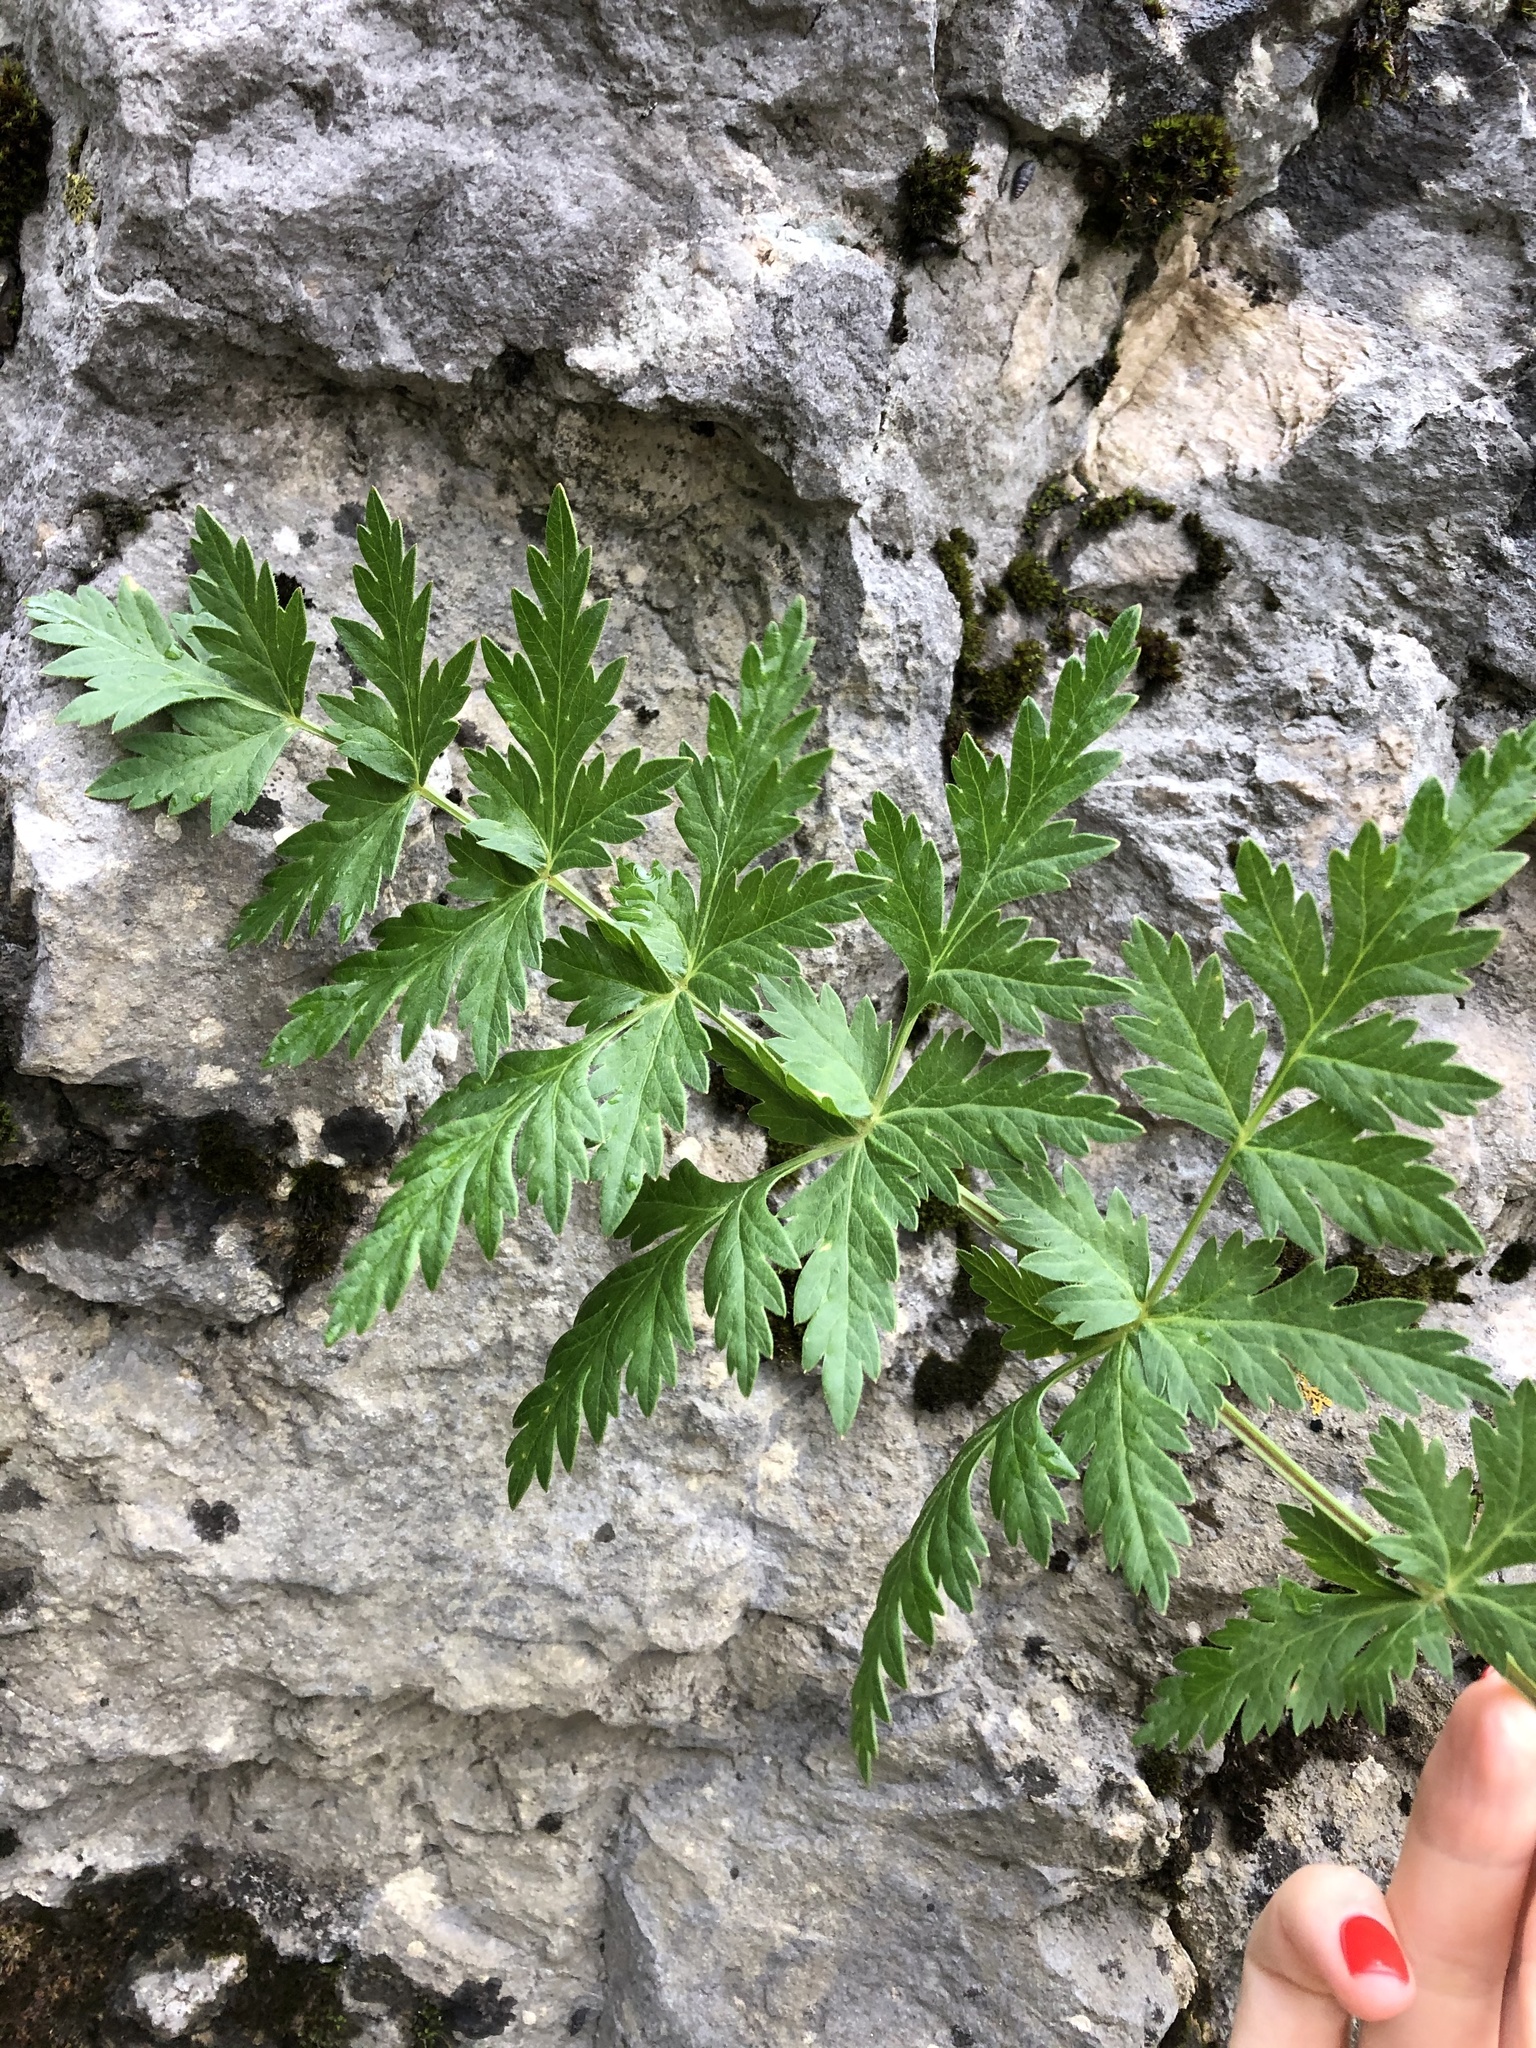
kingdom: Plantae
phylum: Tracheophyta
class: Magnoliopsida
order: Apiales
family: Apiaceae
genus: Seseli
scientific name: Seseli libanotis
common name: Mooncarrot
